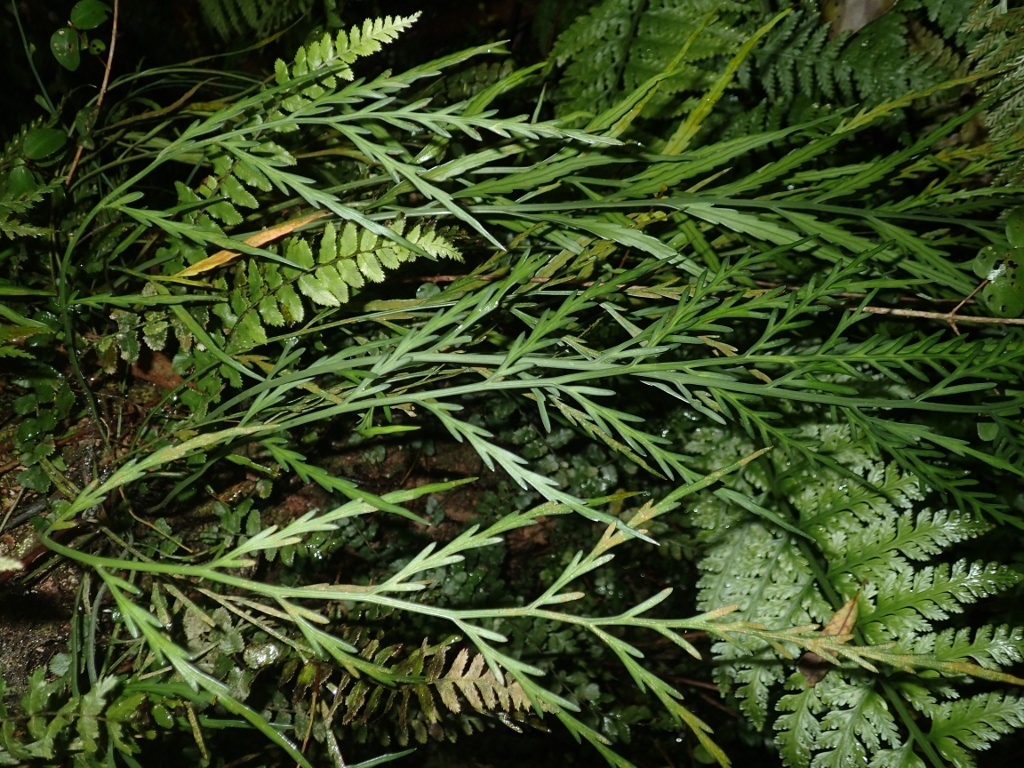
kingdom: Plantae
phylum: Tracheophyta
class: Polypodiopsida
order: Polypodiales
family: Aspleniaceae
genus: Asplenium
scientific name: Asplenium flaccidum
